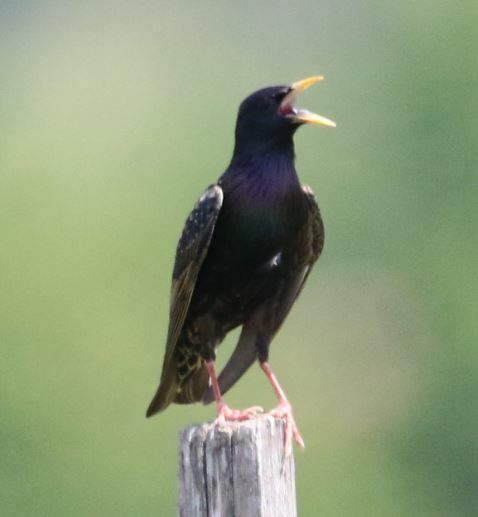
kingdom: Animalia
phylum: Chordata
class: Aves
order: Passeriformes
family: Sturnidae
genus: Sturnus
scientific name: Sturnus vulgaris
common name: Common starling
